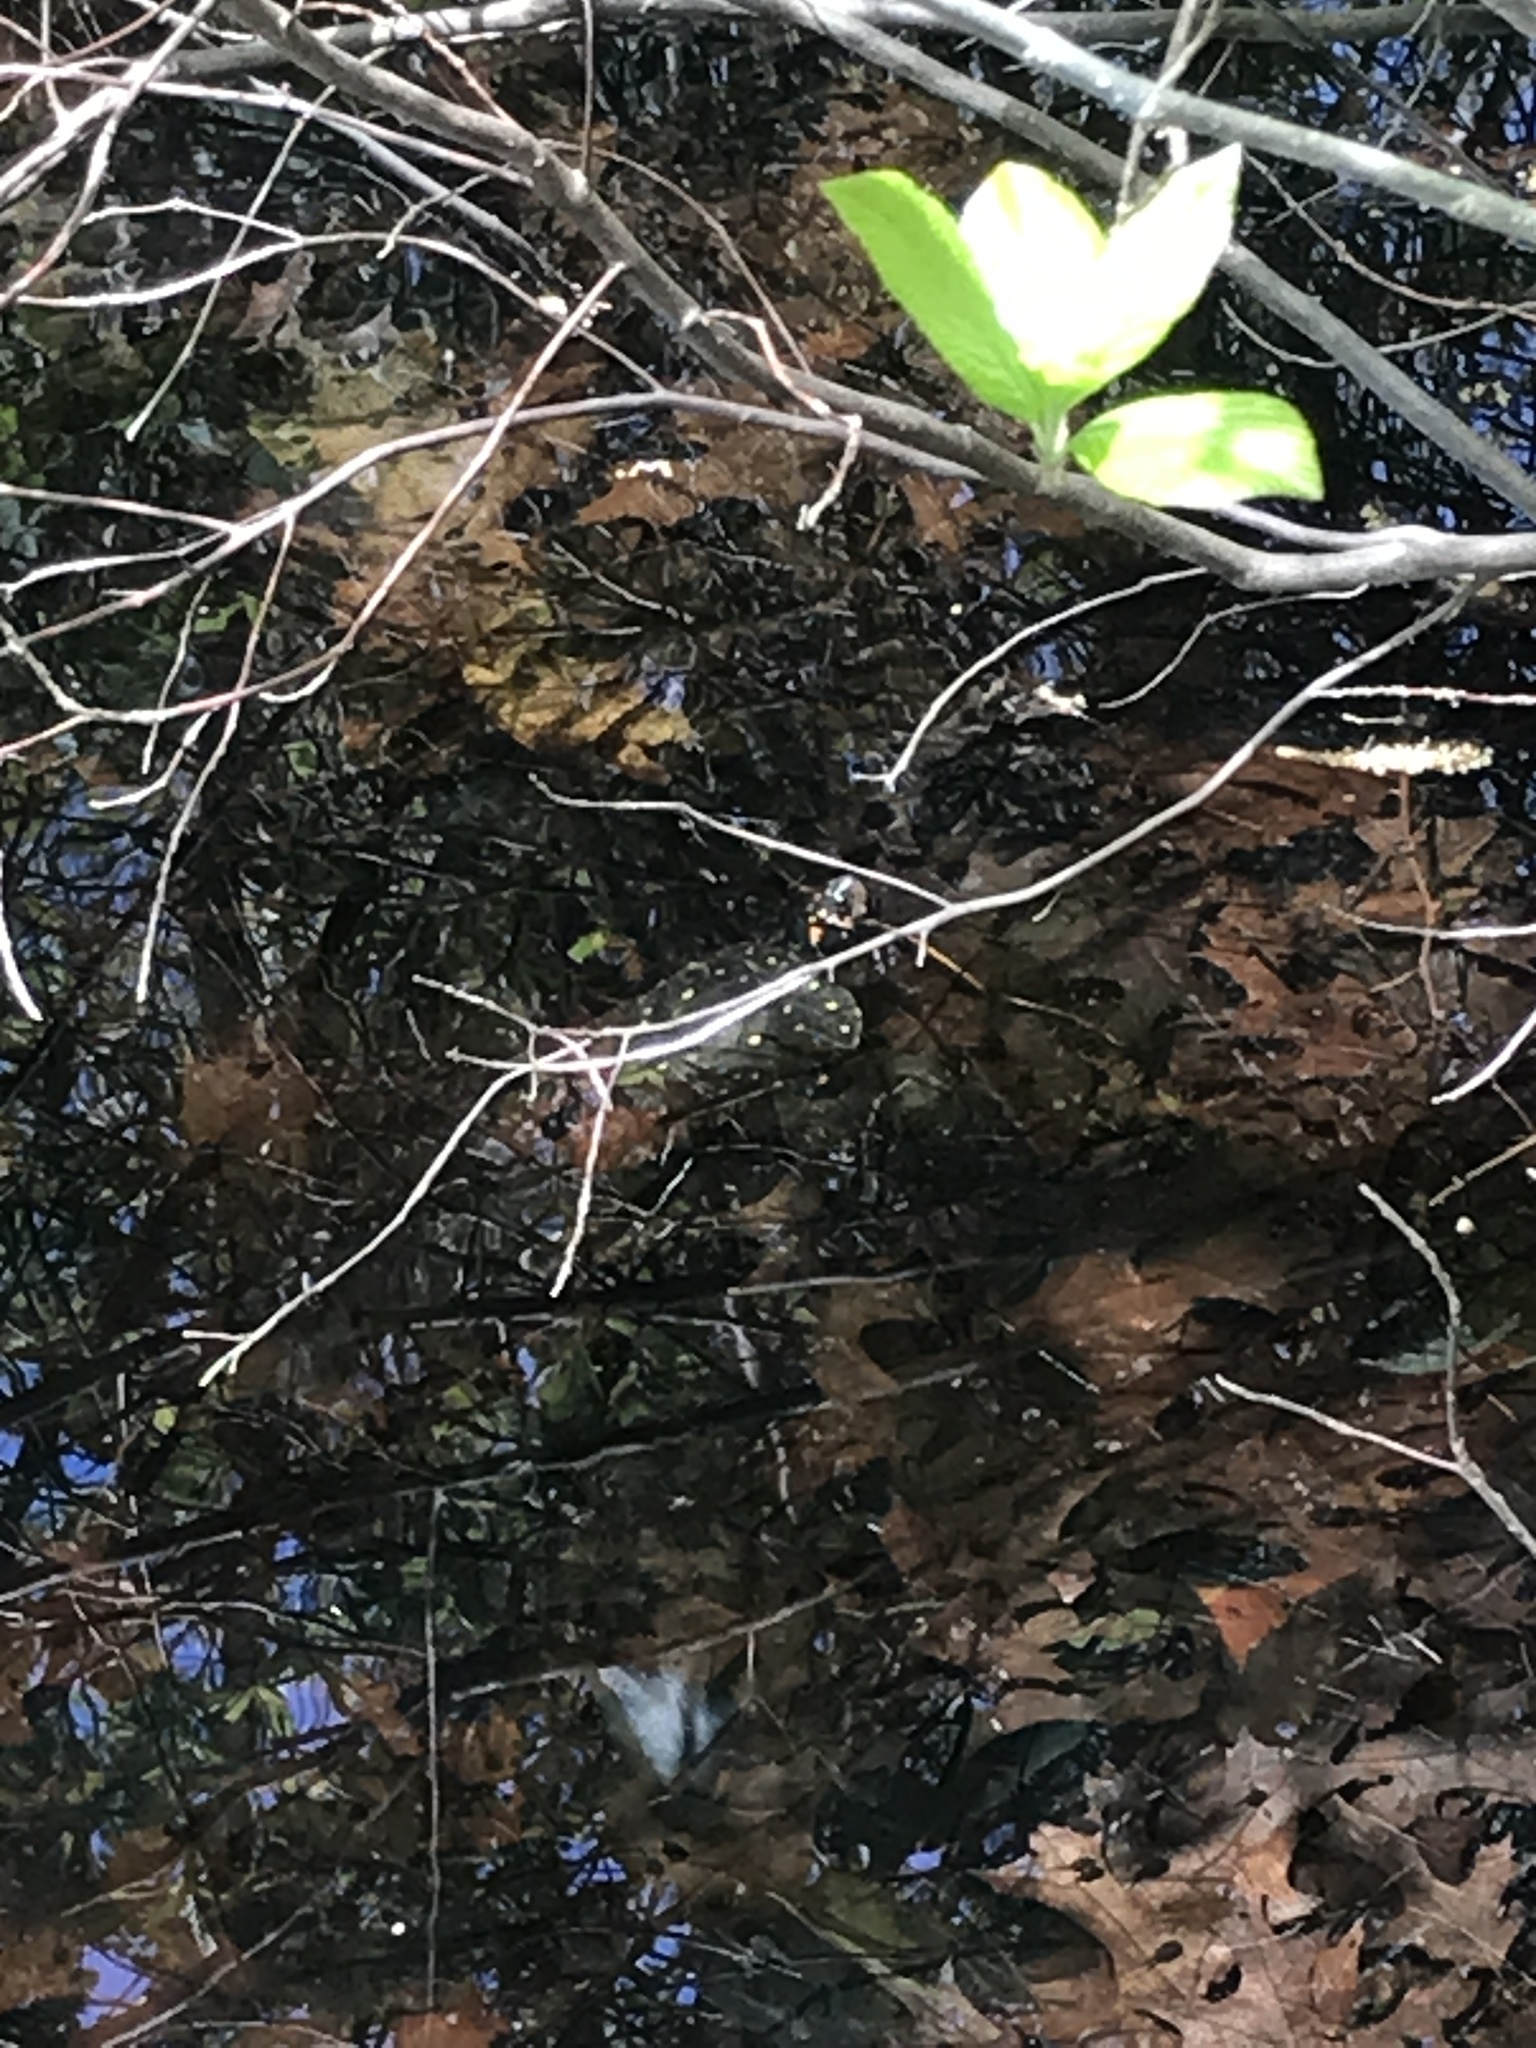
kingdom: Animalia
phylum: Chordata
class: Testudines
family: Emydidae
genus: Clemmys
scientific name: Clemmys guttata
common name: Spotted turtle
